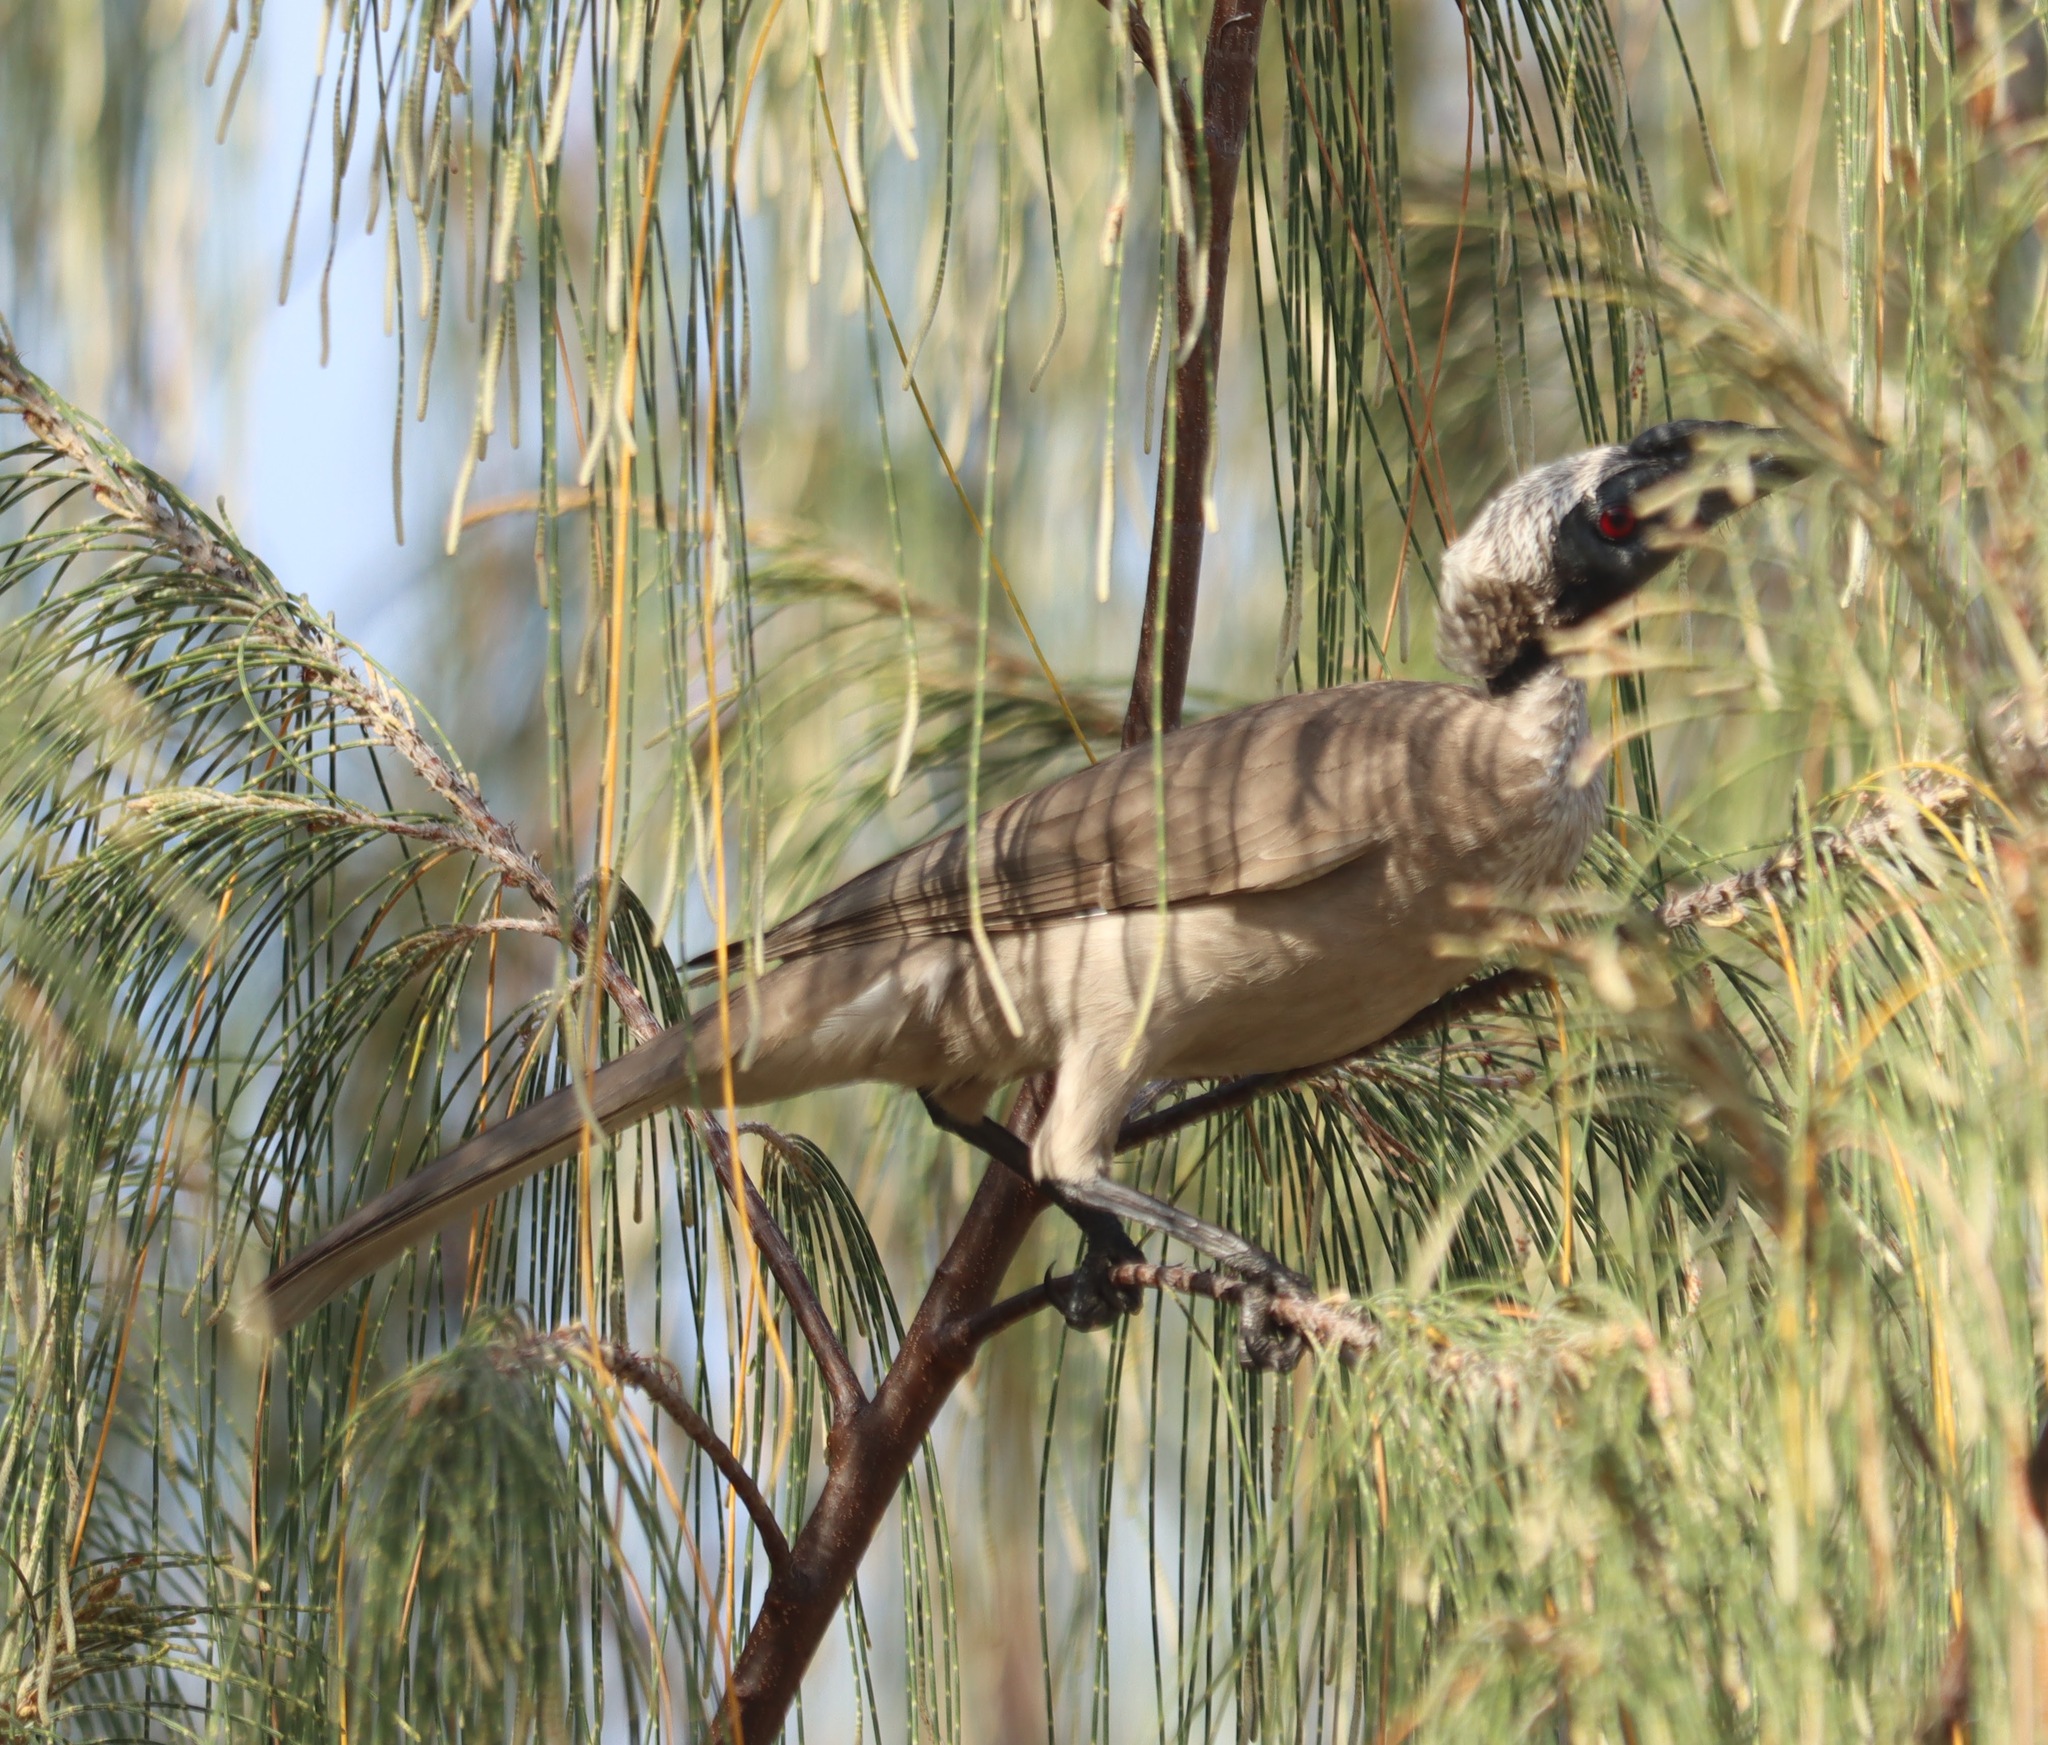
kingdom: Animalia
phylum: Chordata
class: Aves
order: Passeriformes
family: Meliphagidae
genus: Philemon
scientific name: Philemon corniculatus
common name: Noisy friarbird
